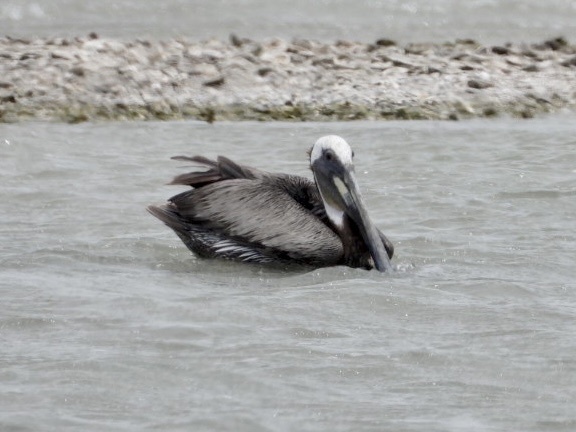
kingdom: Animalia
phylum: Chordata
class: Aves
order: Pelecaniformes
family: Pelecanidae
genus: Pelecanus
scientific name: Pelecanus occidentalis
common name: Brown pelican
